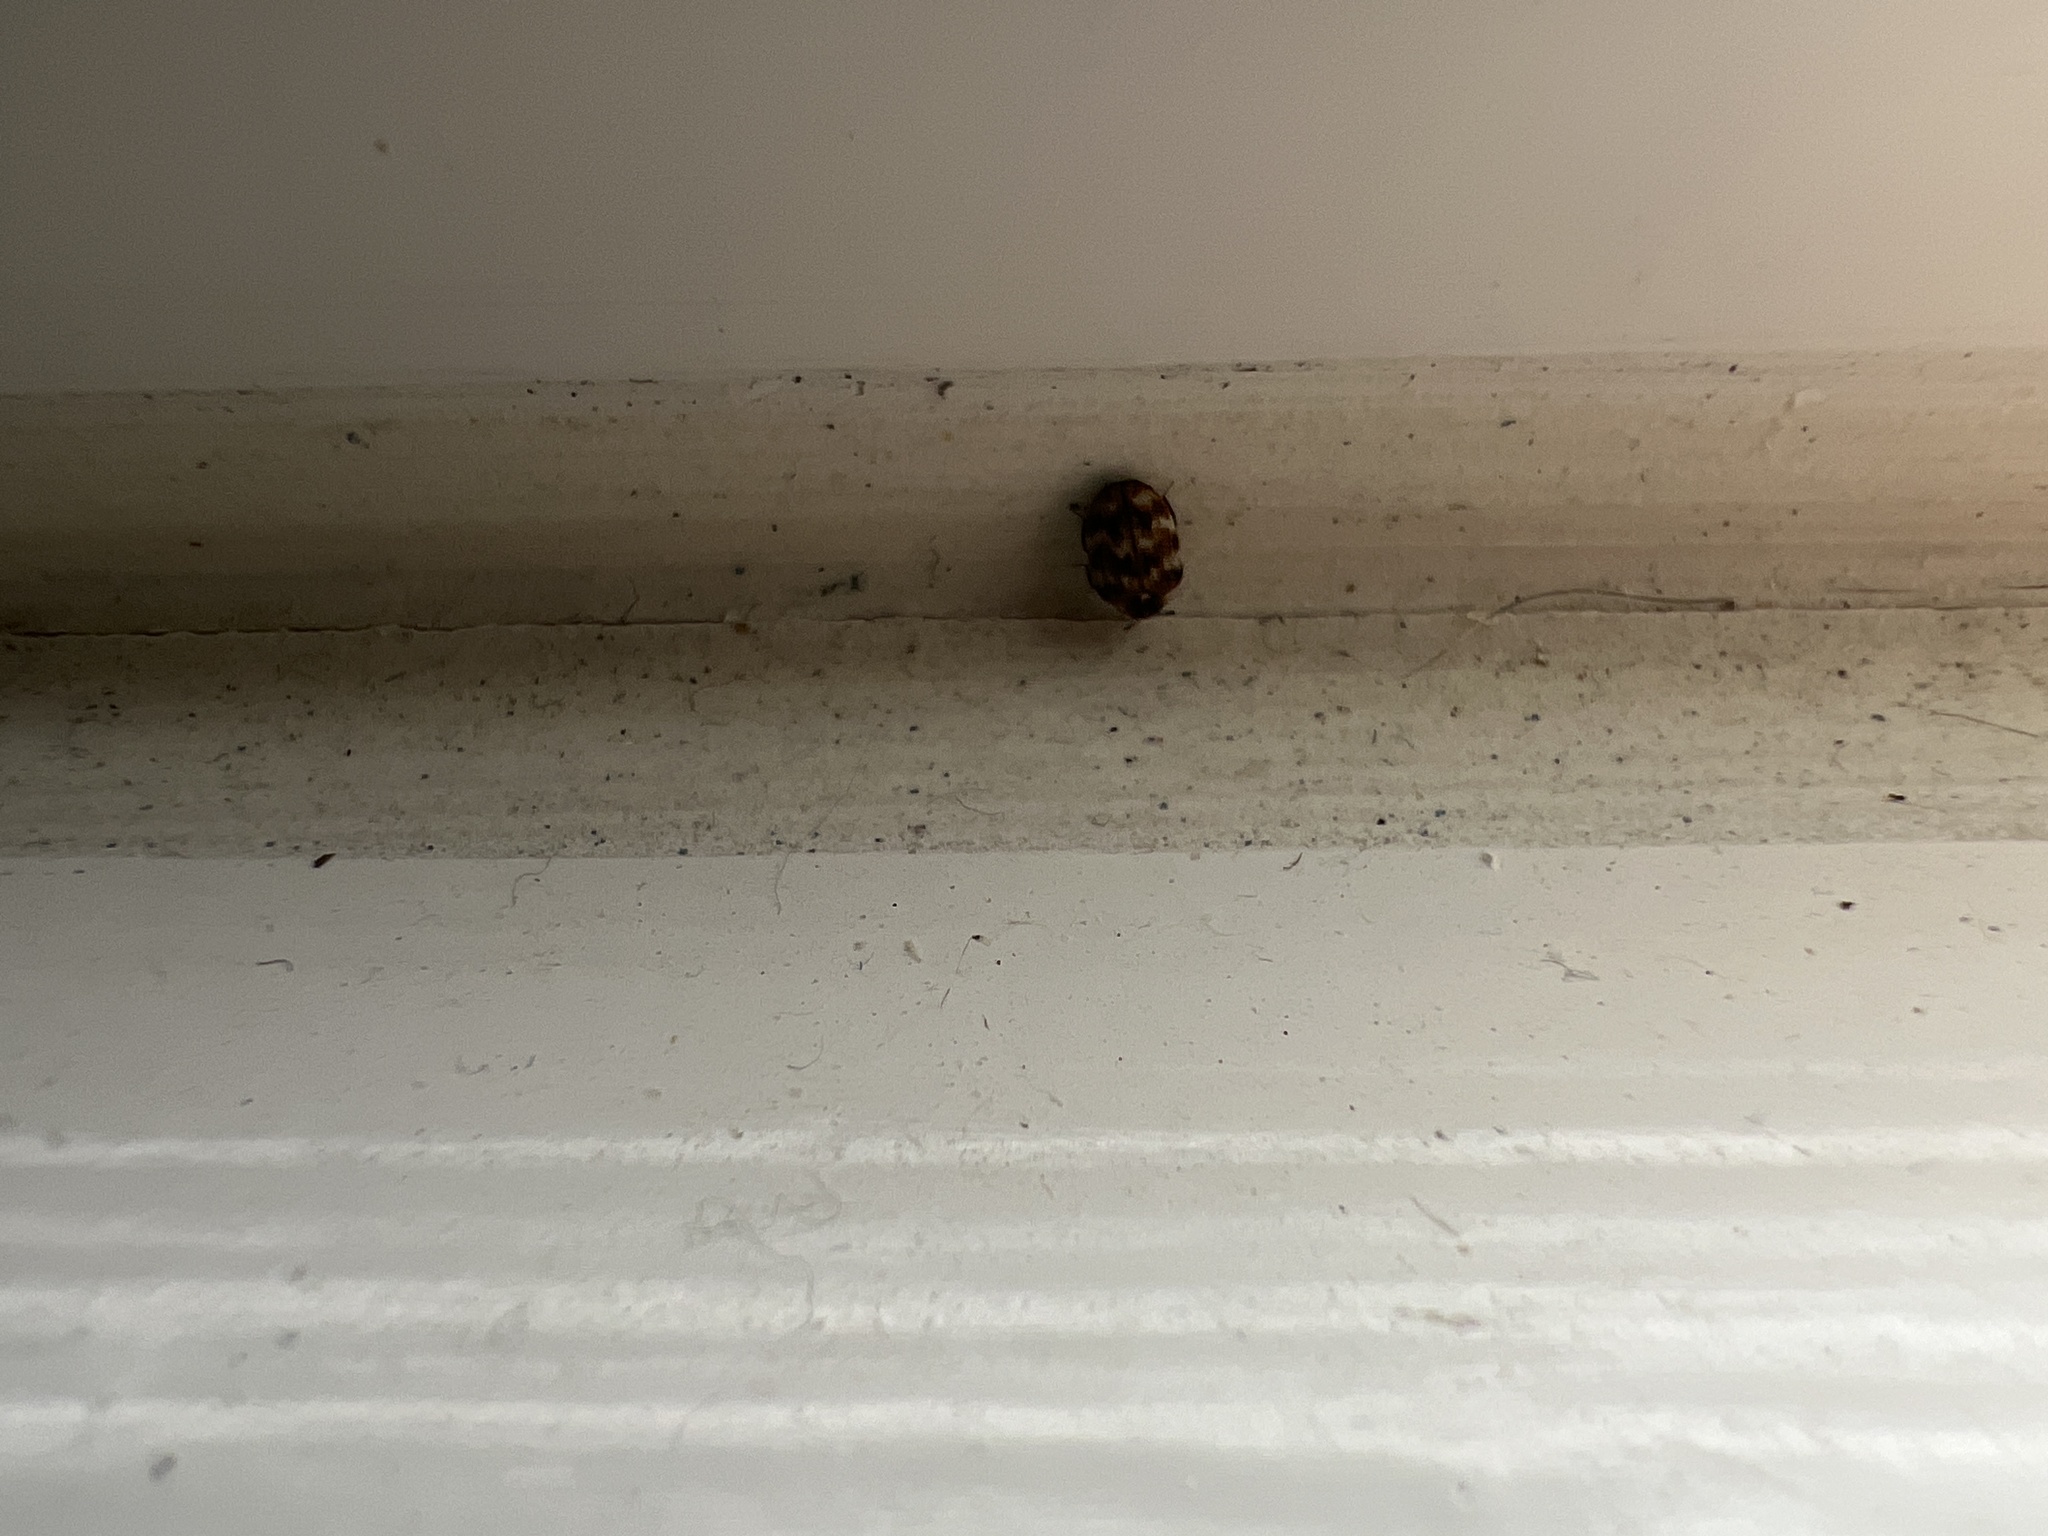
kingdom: Animalia
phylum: Arthropoda
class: Insecta
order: Coleoptera
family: Dermestidae
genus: Anthrenus
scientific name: Anthrenus verbasci
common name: Varied carpet beetle
